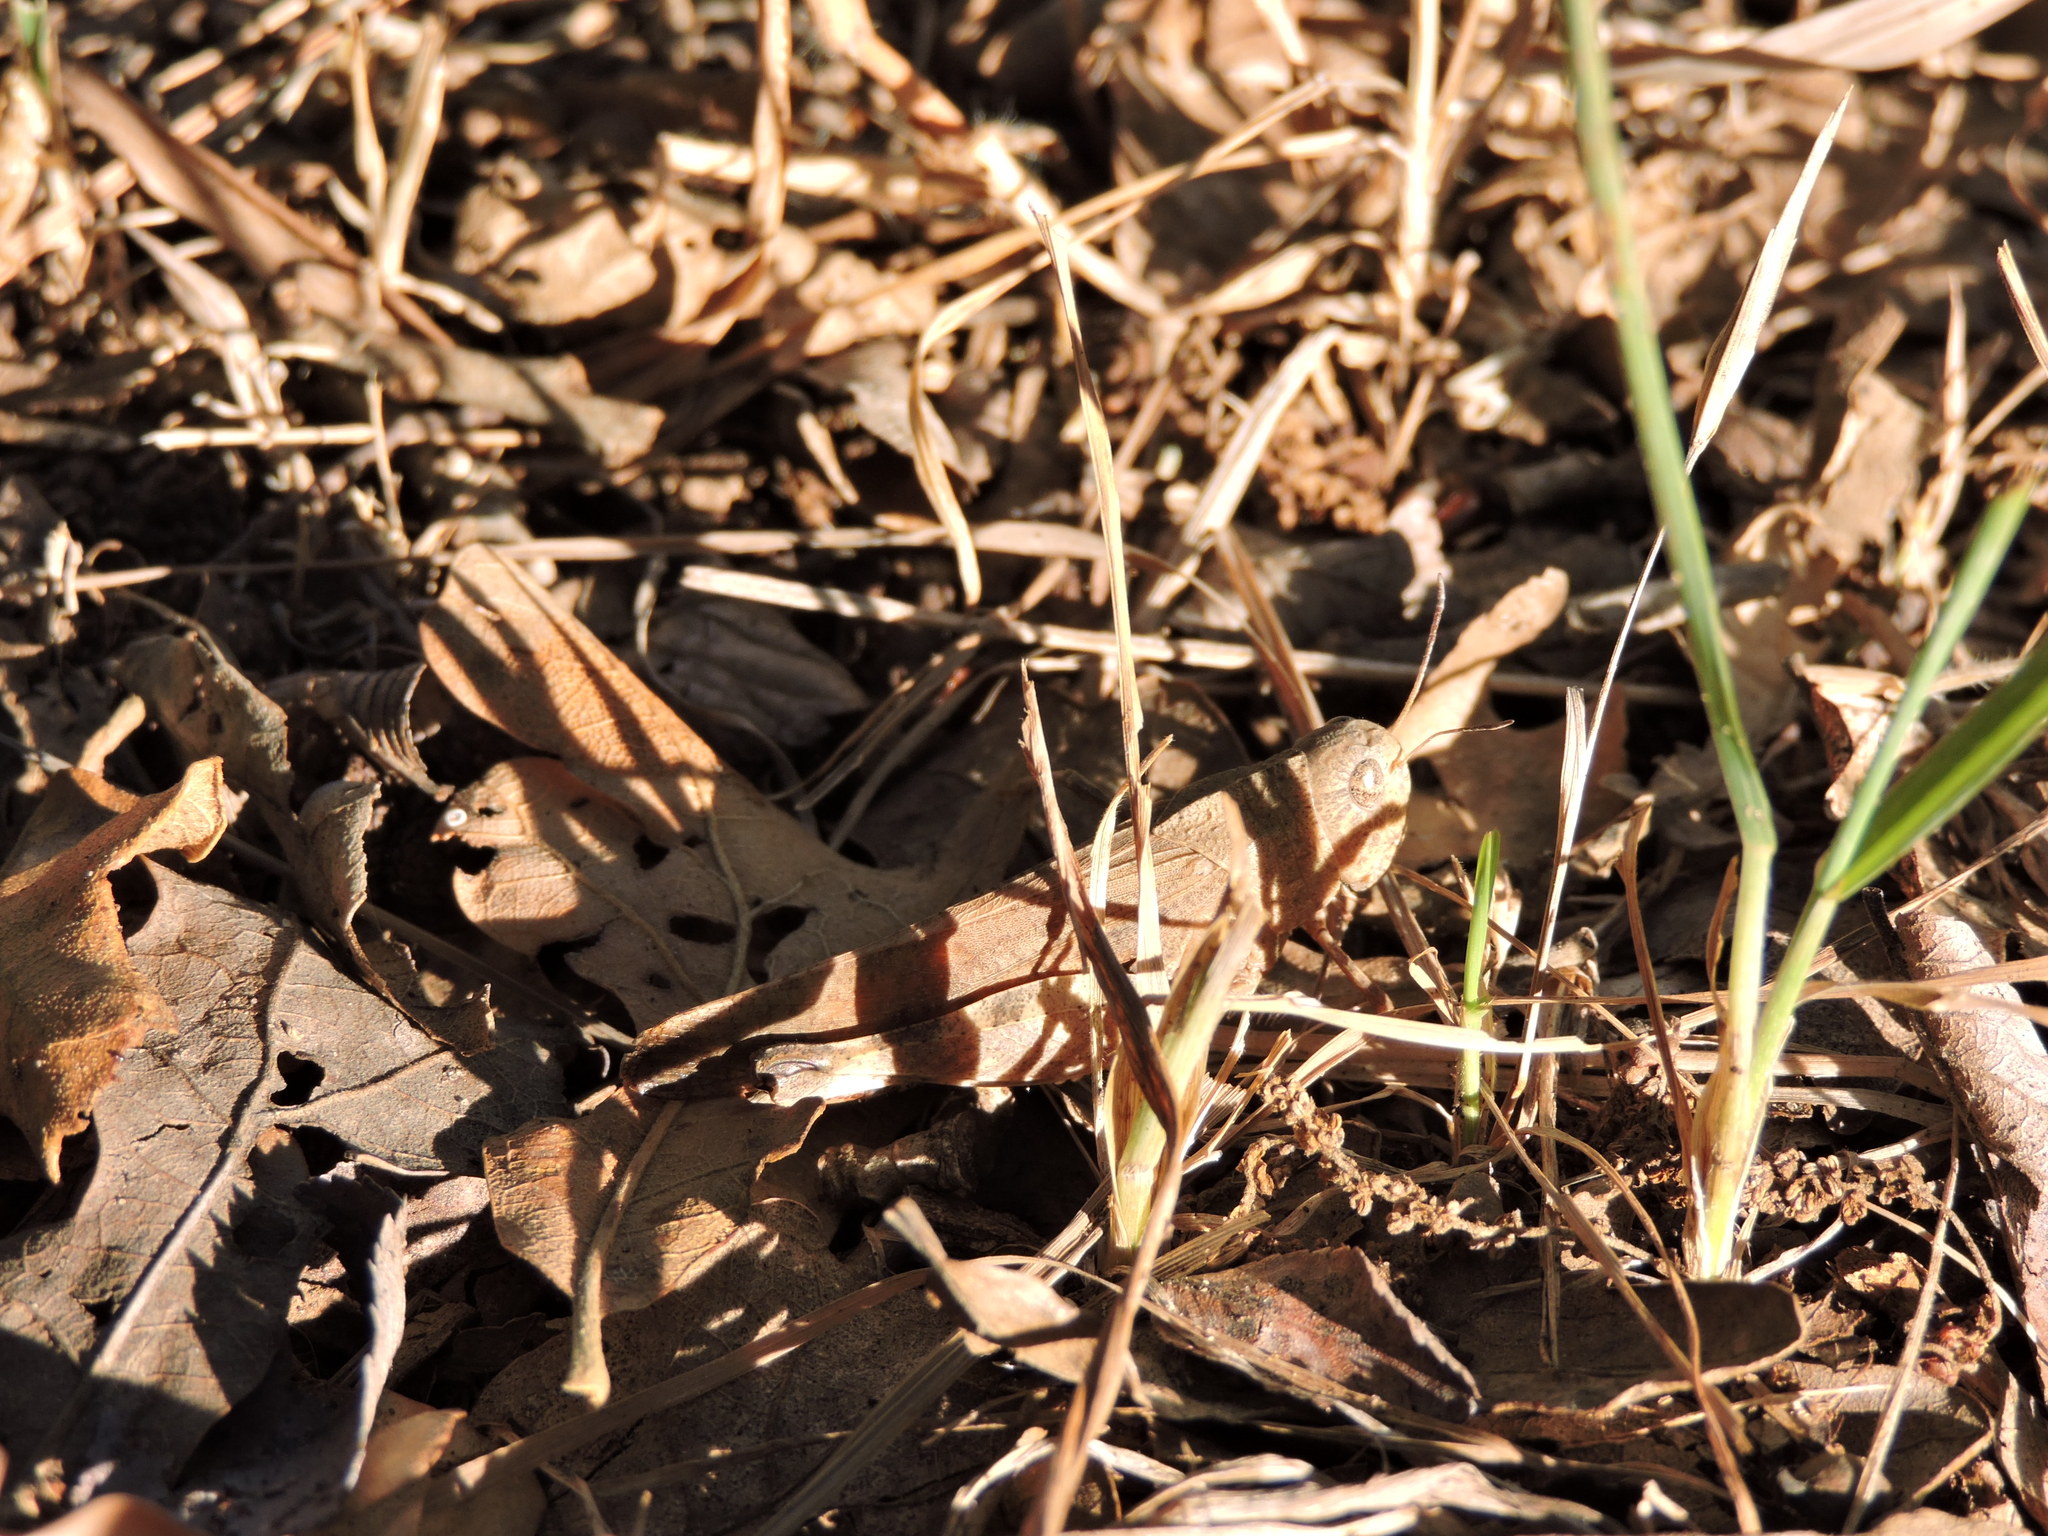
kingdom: Animalia
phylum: Arthropoda
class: Insecta
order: Orthoptera
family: Acrididae
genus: Arphia
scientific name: Arphia simplex
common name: Plains yellow-winged grasshopper
